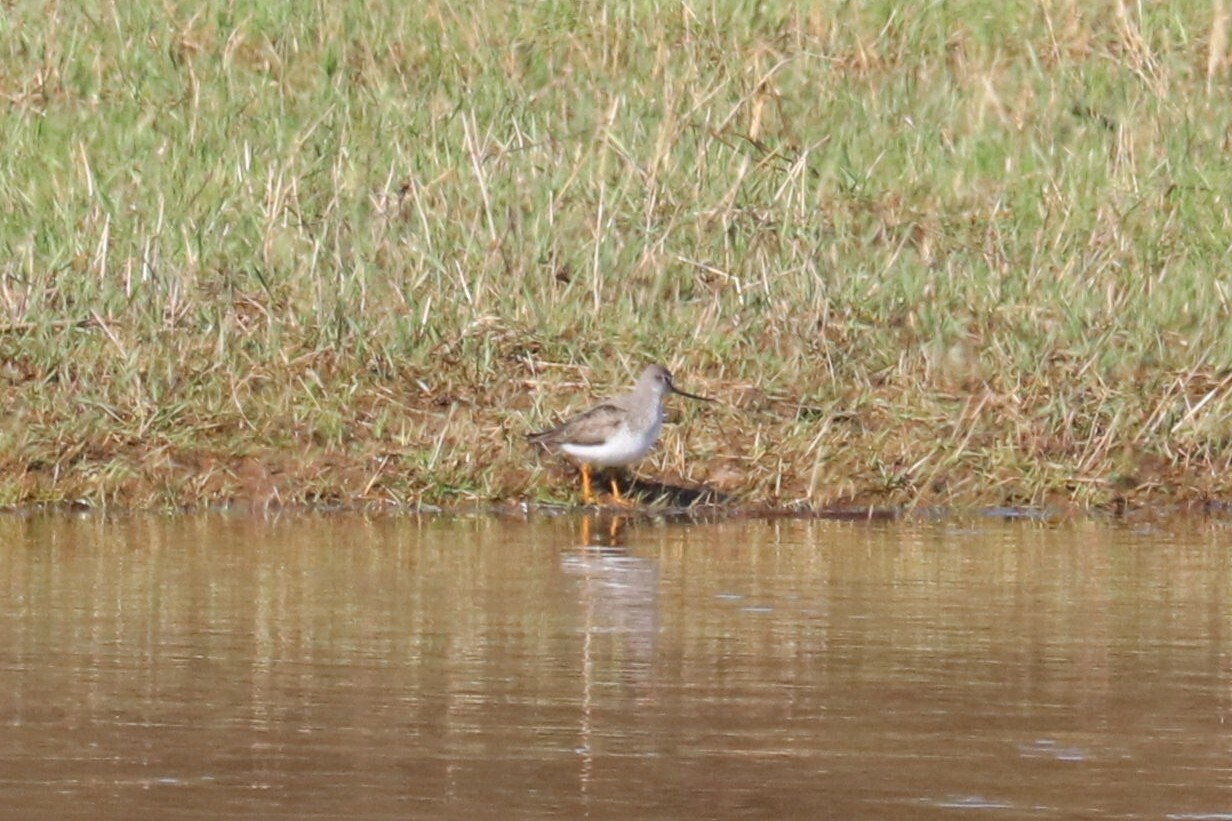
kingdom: Animalia
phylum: Chordata
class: Aves
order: Charadriiformes
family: Scolopacidae
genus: Xenus
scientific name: Xenus cinereus
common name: Terek sandpiper
